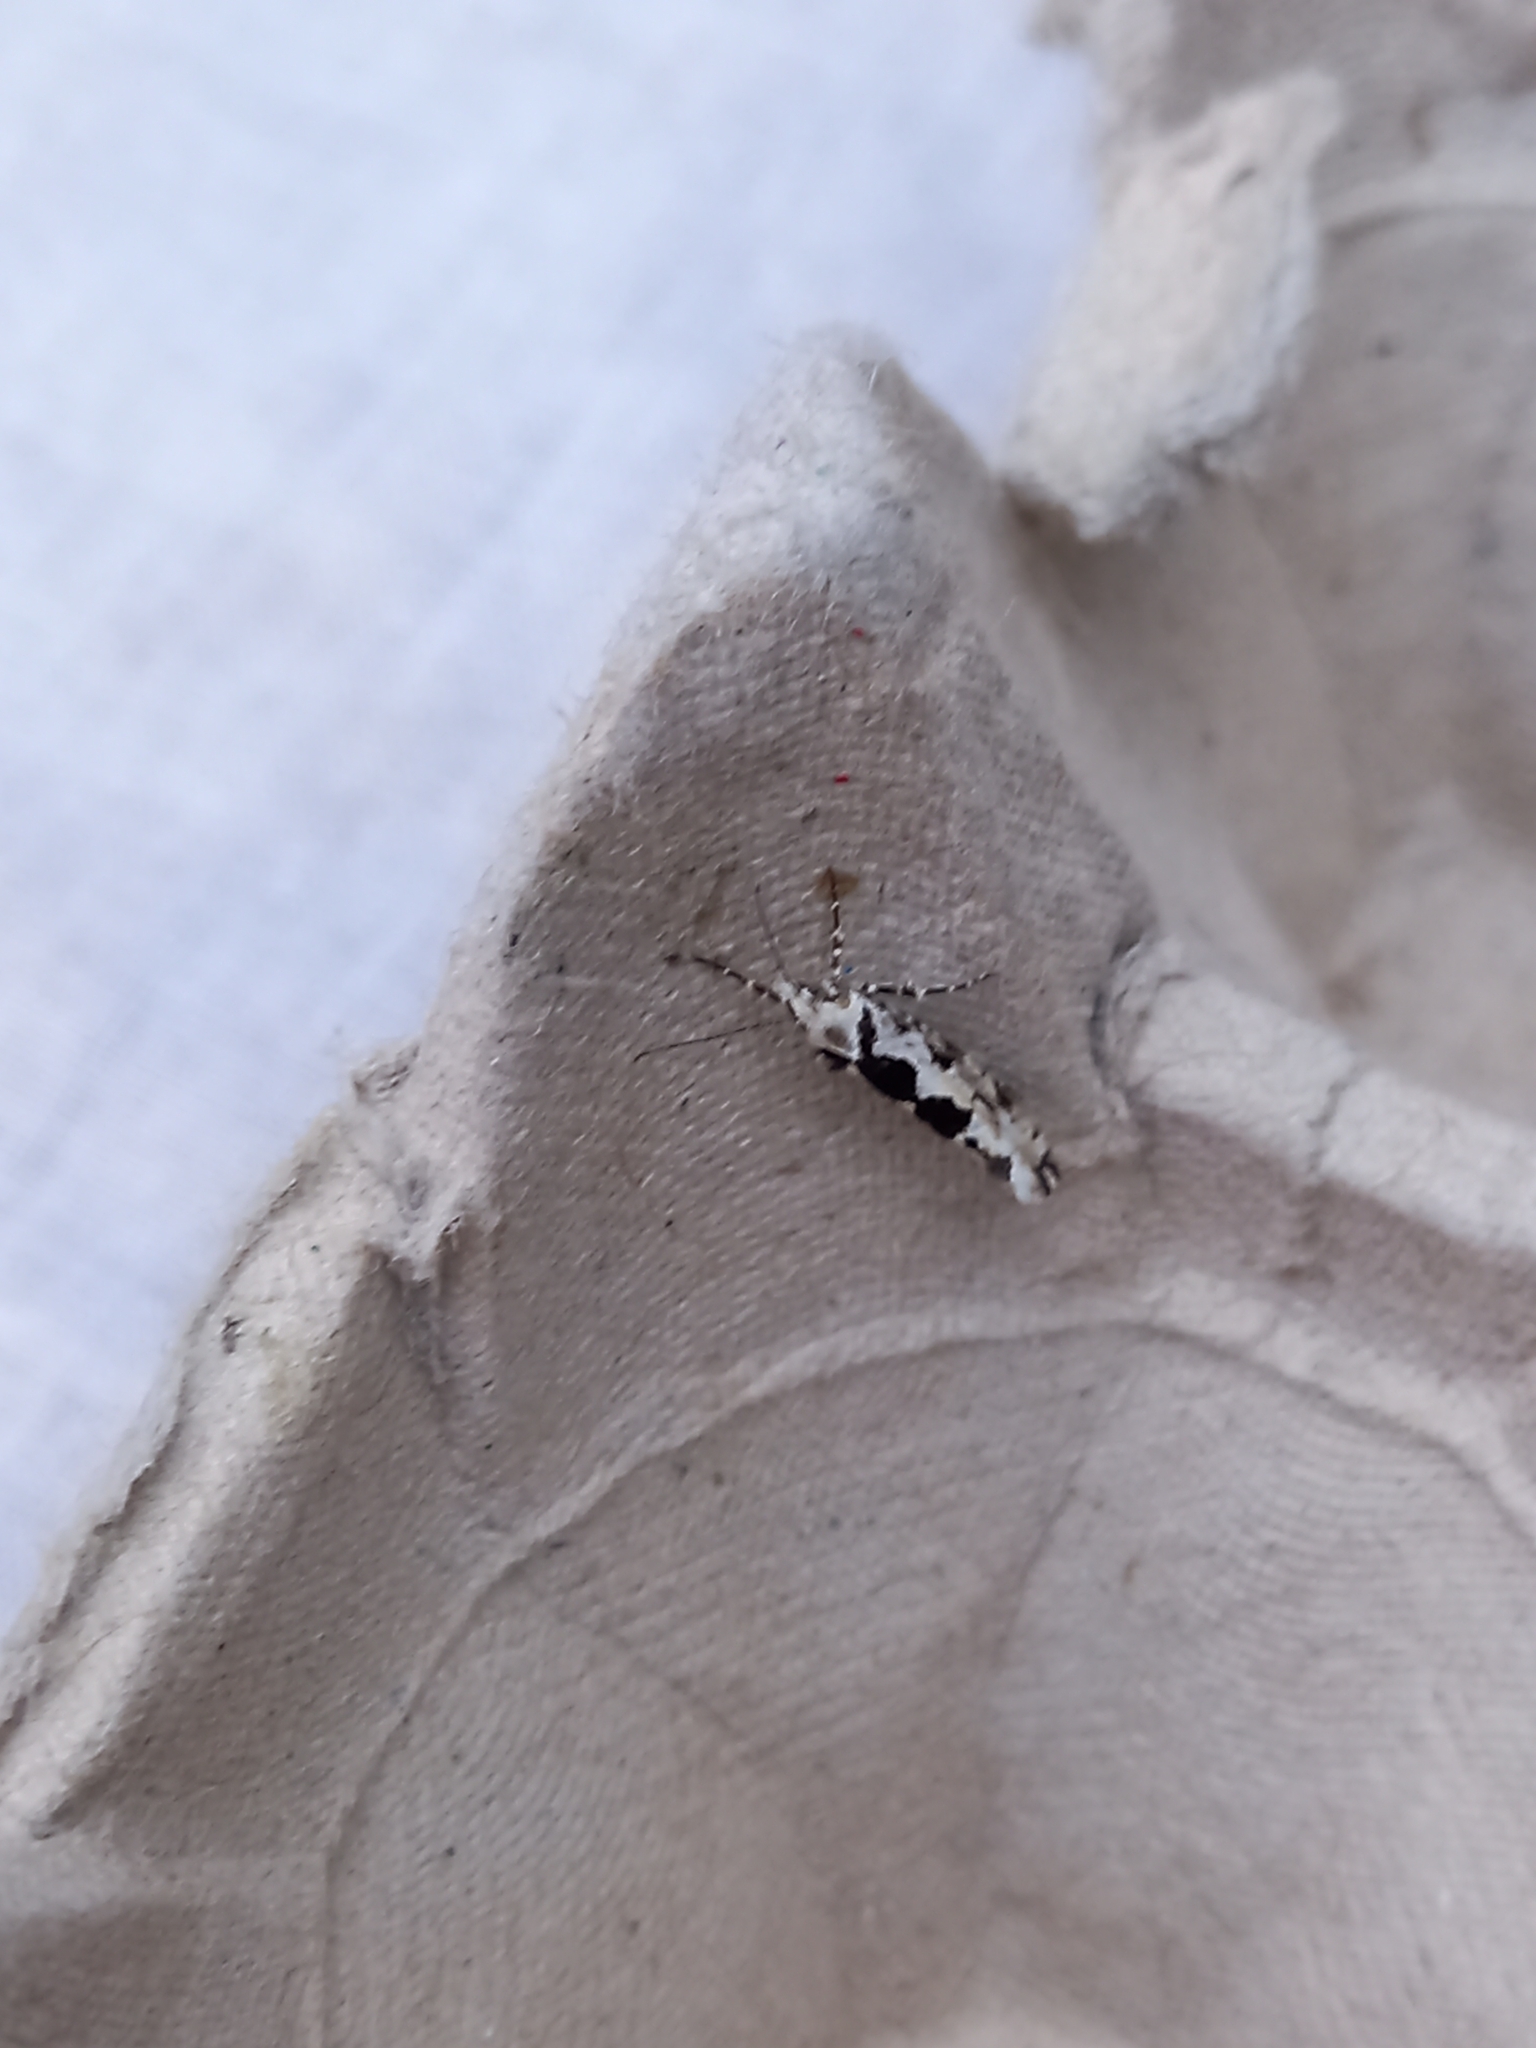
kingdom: Animalia
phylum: Arthropoda
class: Insecta
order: Lepidoptera
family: Plutellidae
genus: Ypsolophus
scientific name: Ypsolophus sequella
